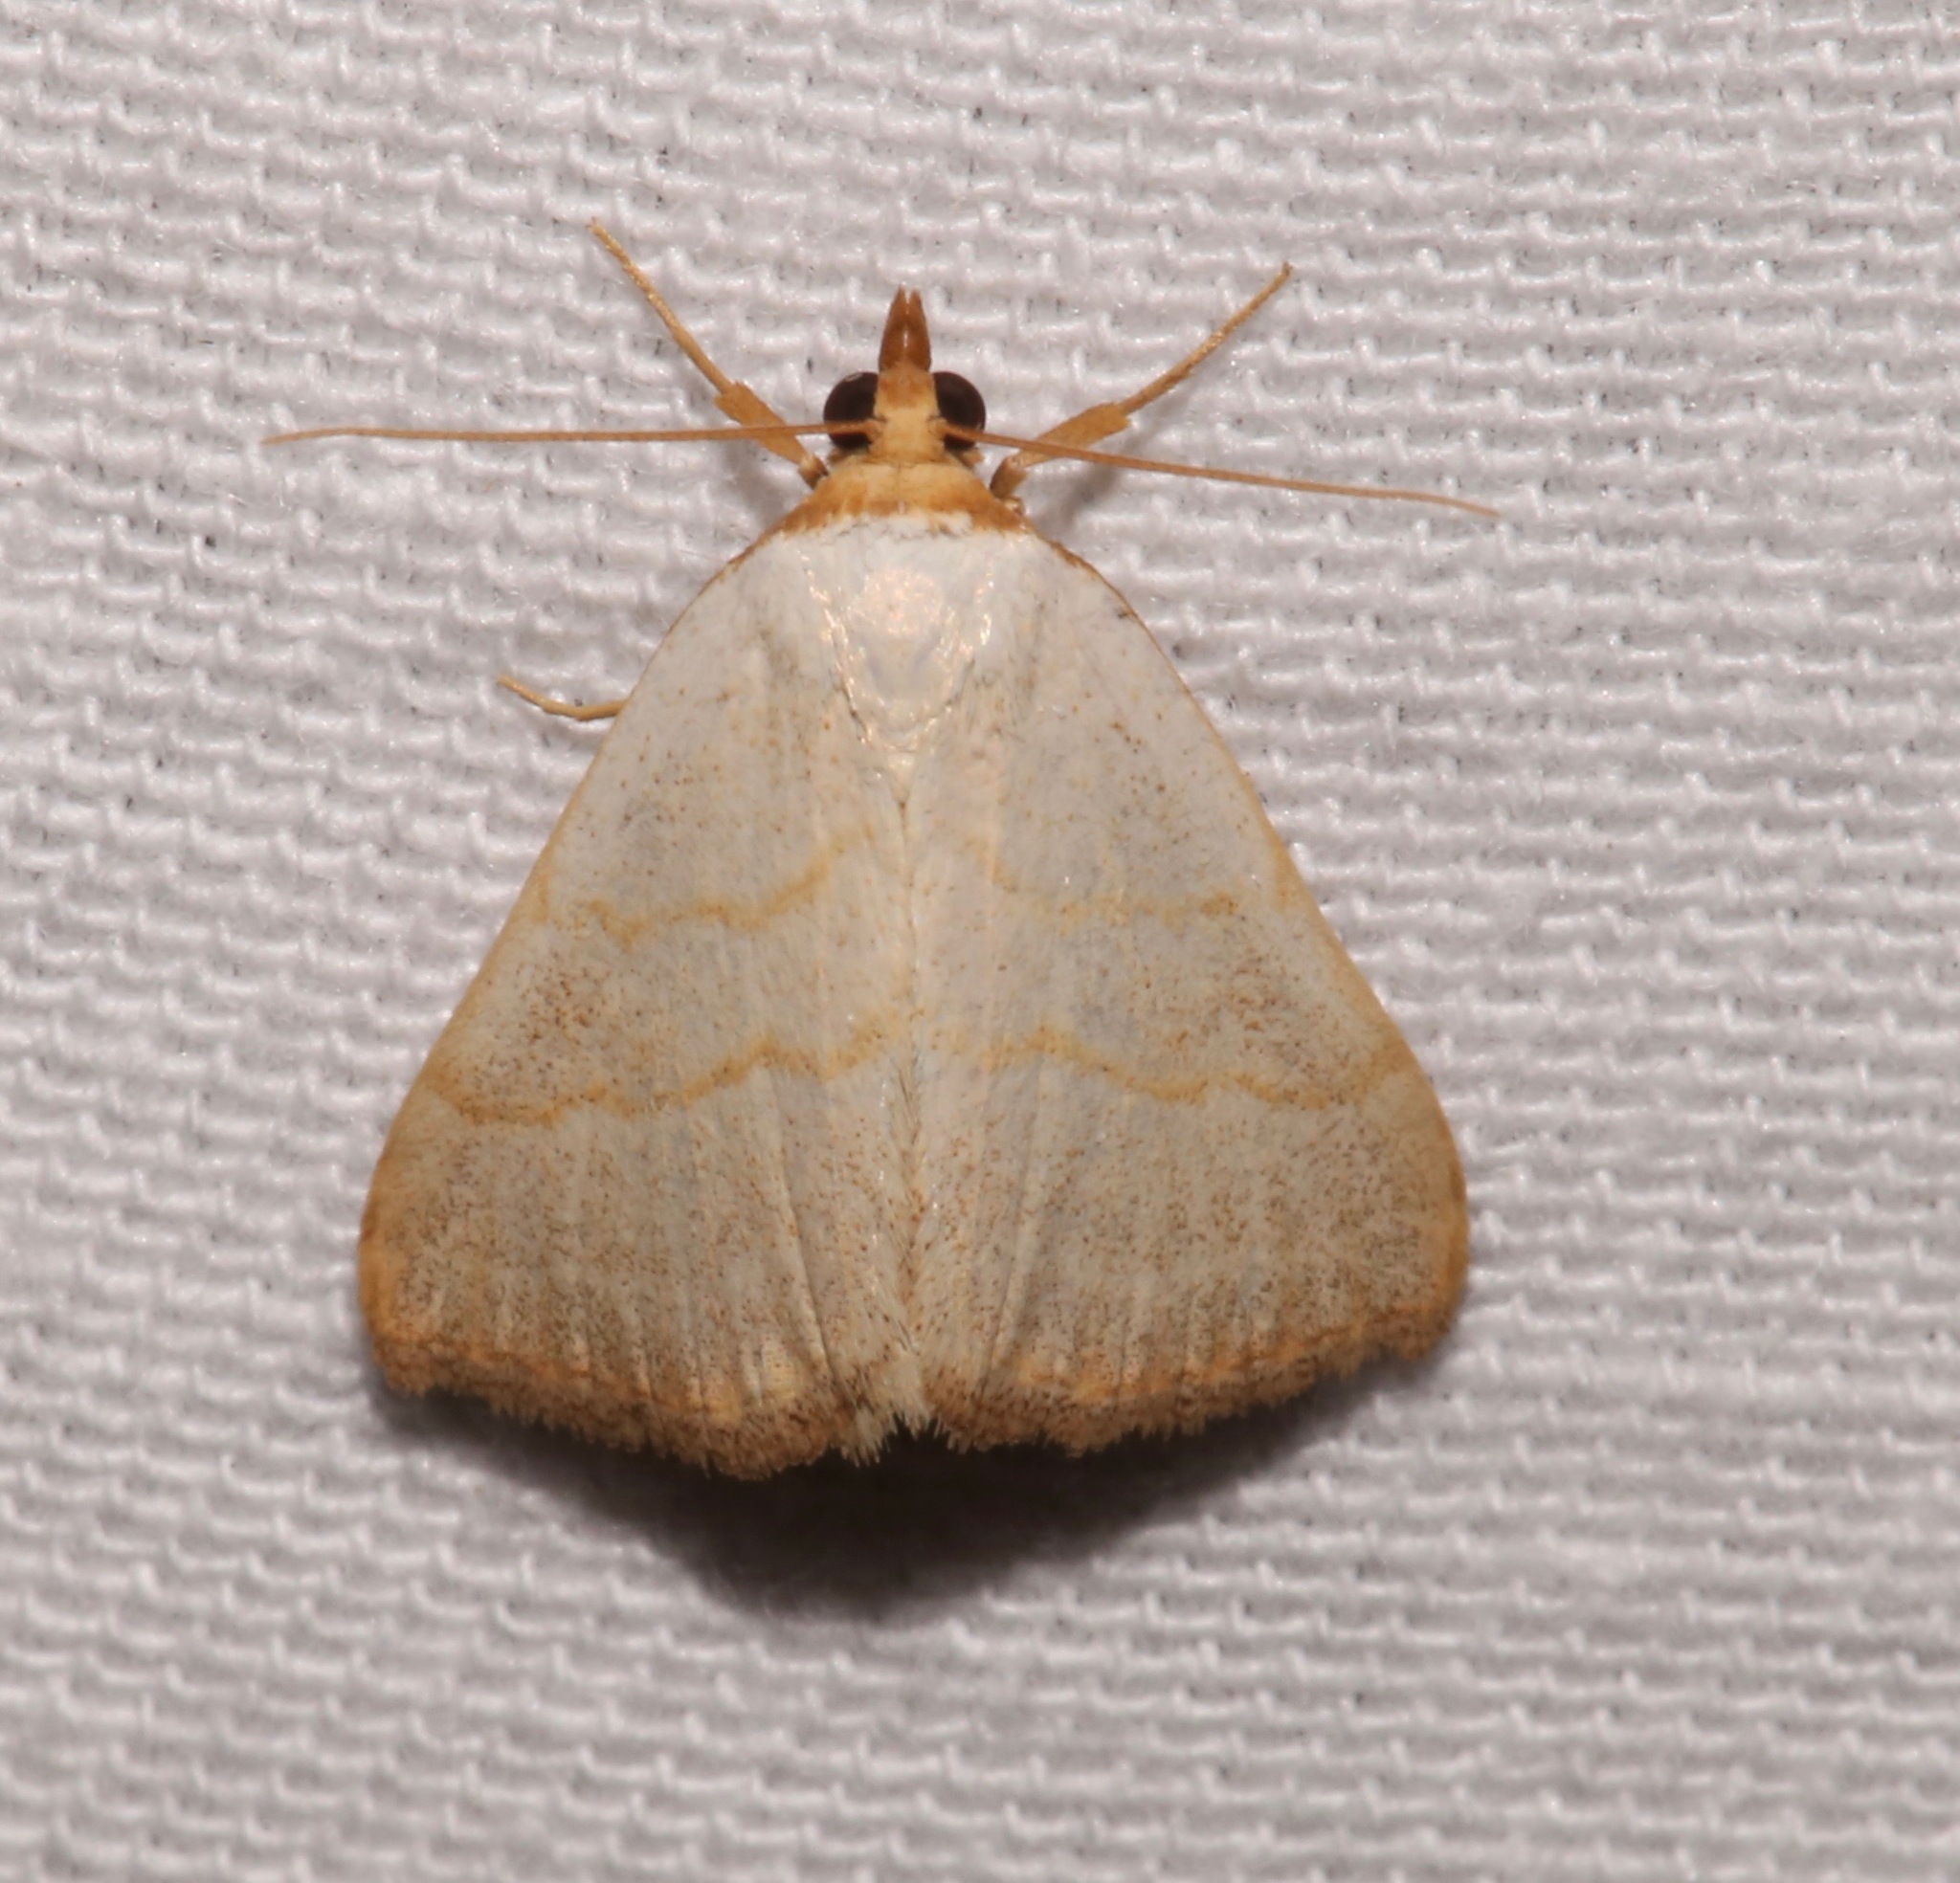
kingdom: Animalia
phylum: Arthropoda
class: Insecta
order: Lepidoptera
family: Erebidae
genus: Oxycilla
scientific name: Oxycilla tripla
